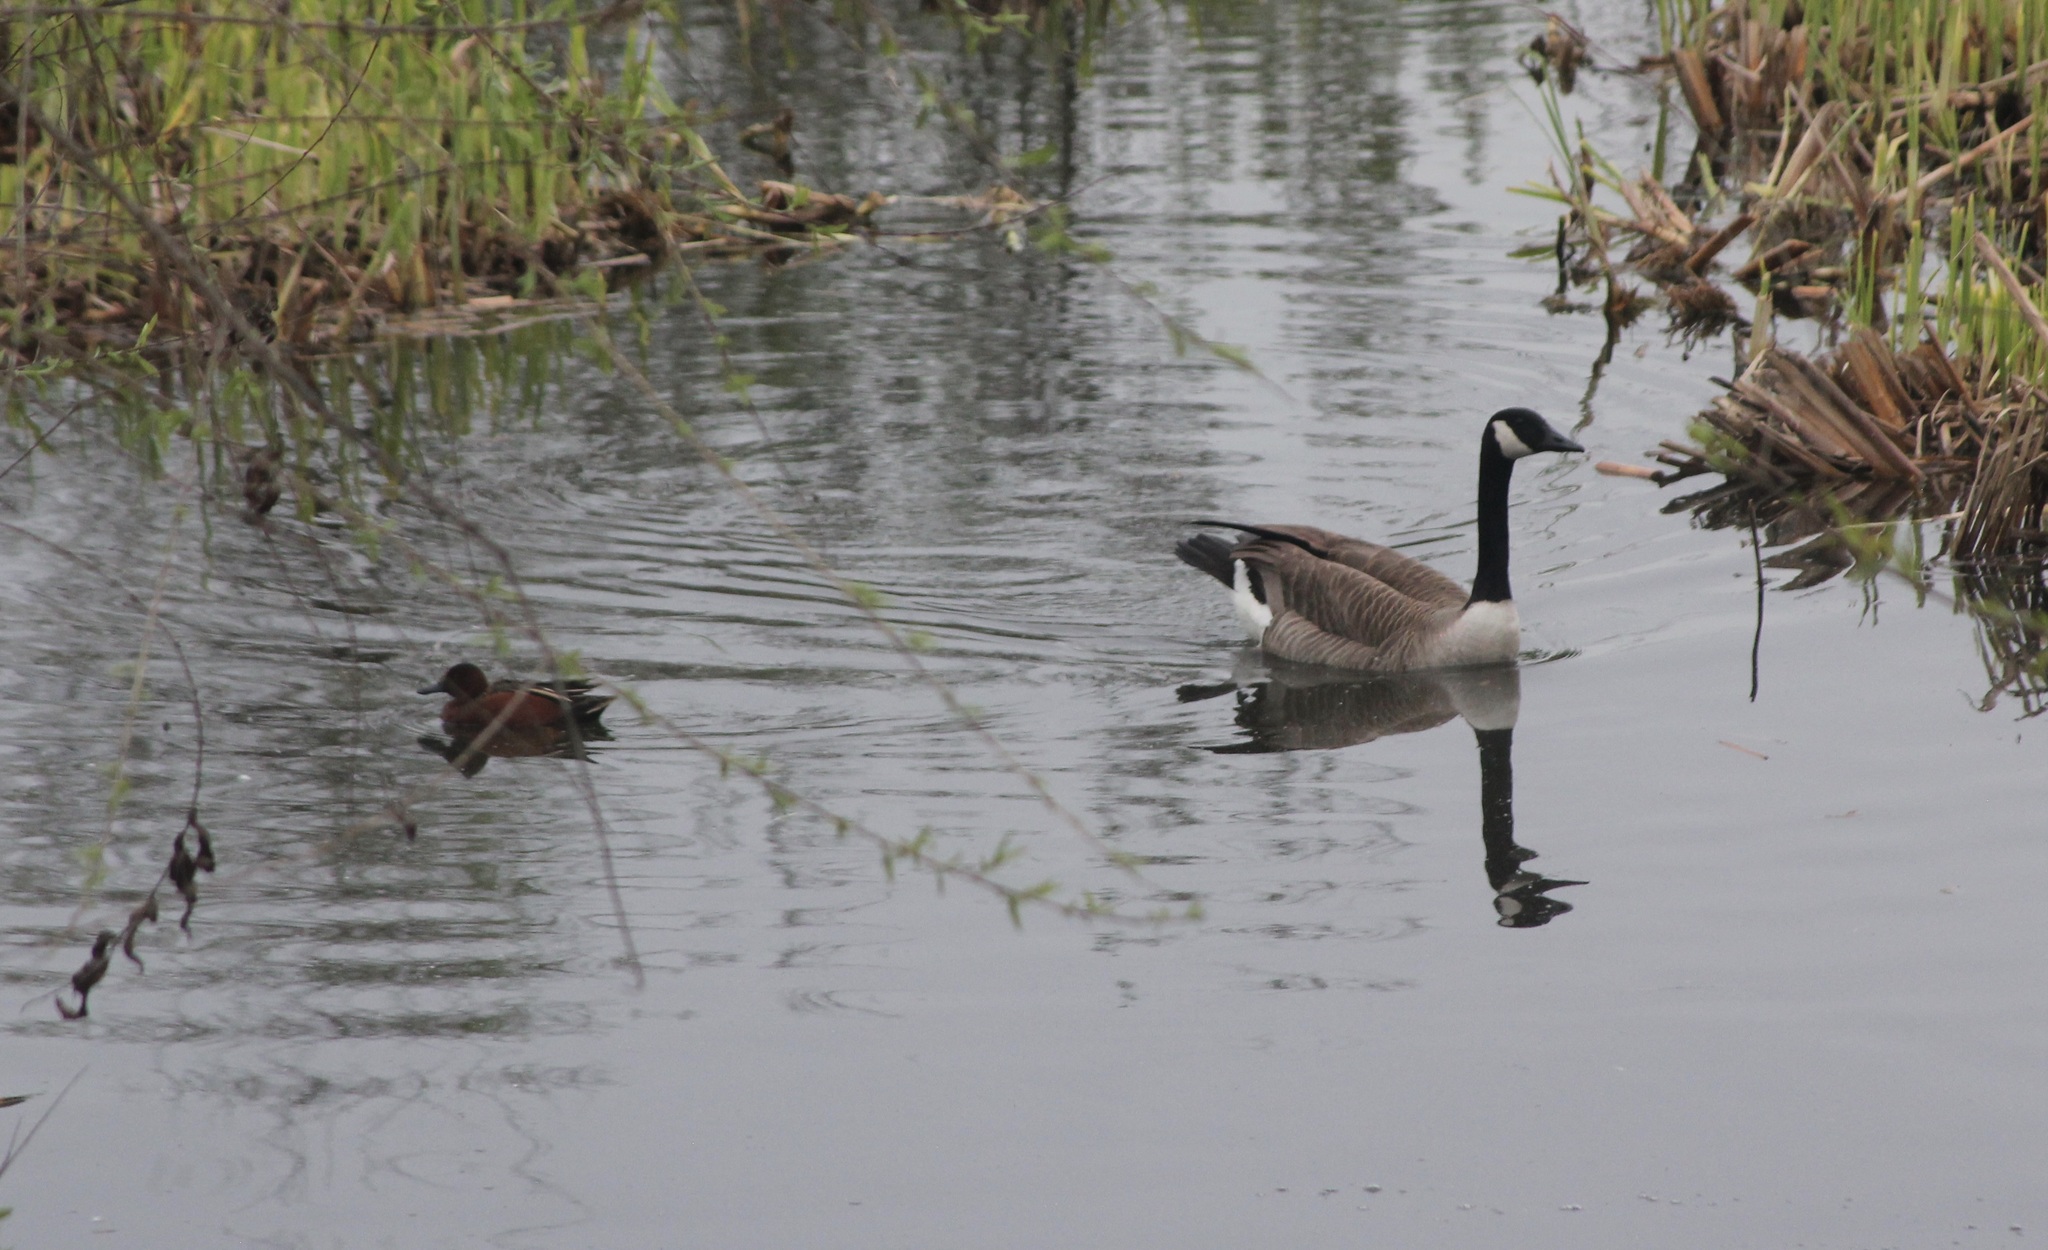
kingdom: Animalia
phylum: Chordata
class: Aves
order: Anseriformes
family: Anatidae
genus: Branta
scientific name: Branta canadensis
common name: Canada goose
